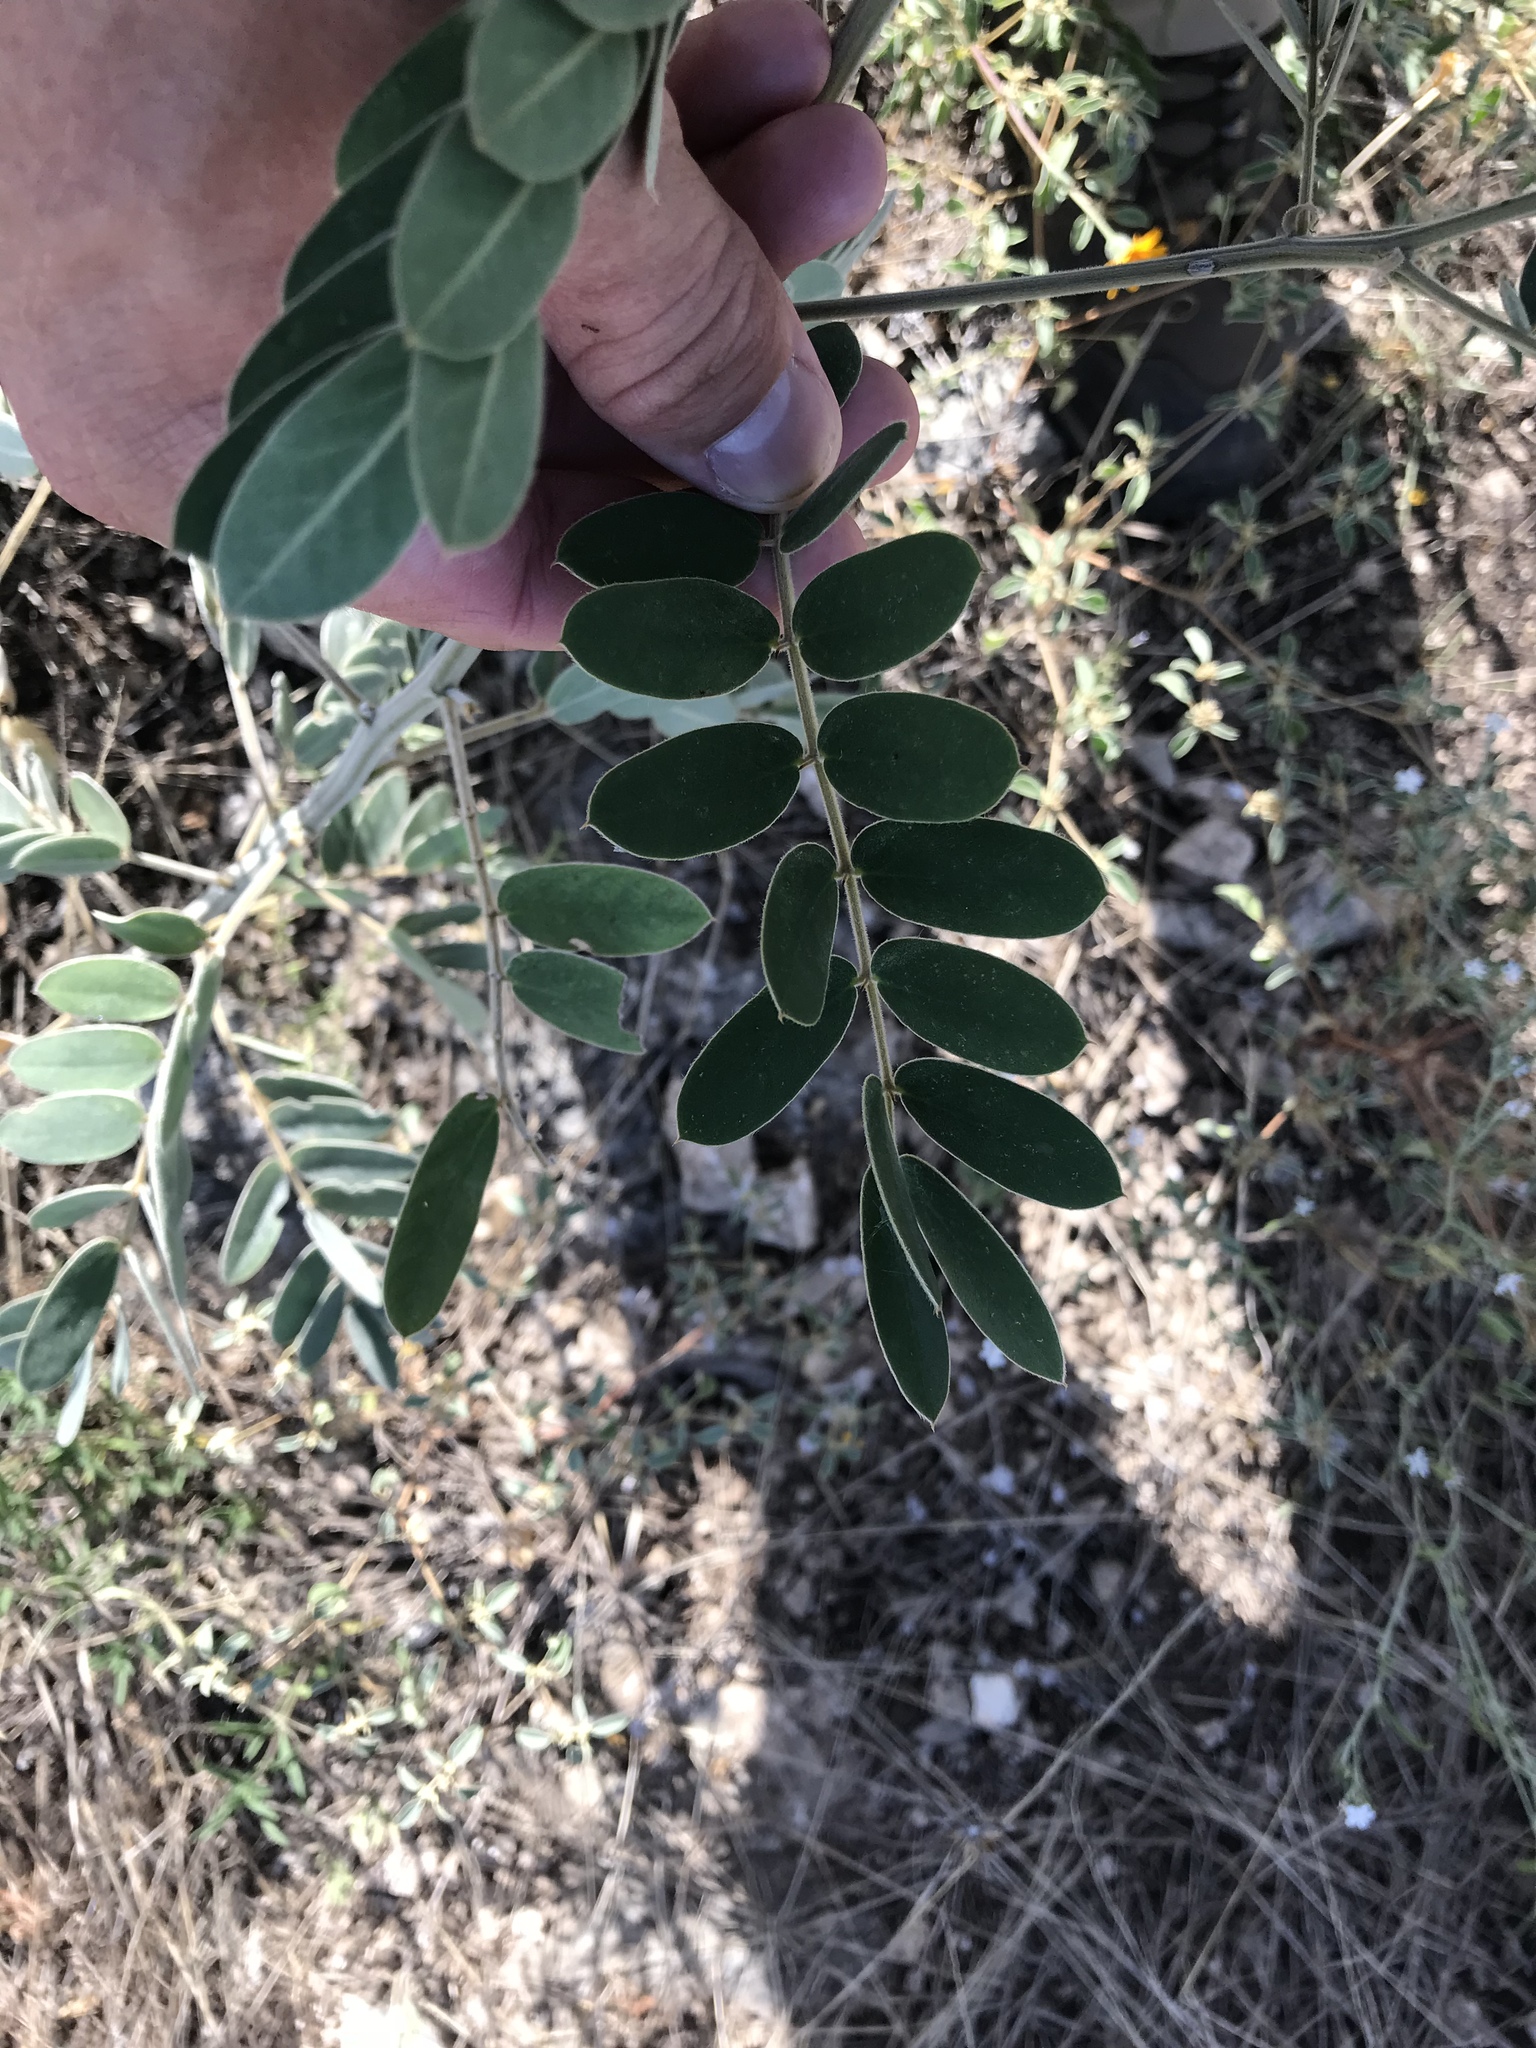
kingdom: Plantae
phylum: Tracheophyta
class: Magnoliopsida
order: Fabales
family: Fabaceae
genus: Senna
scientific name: Senna lindheimeriana
